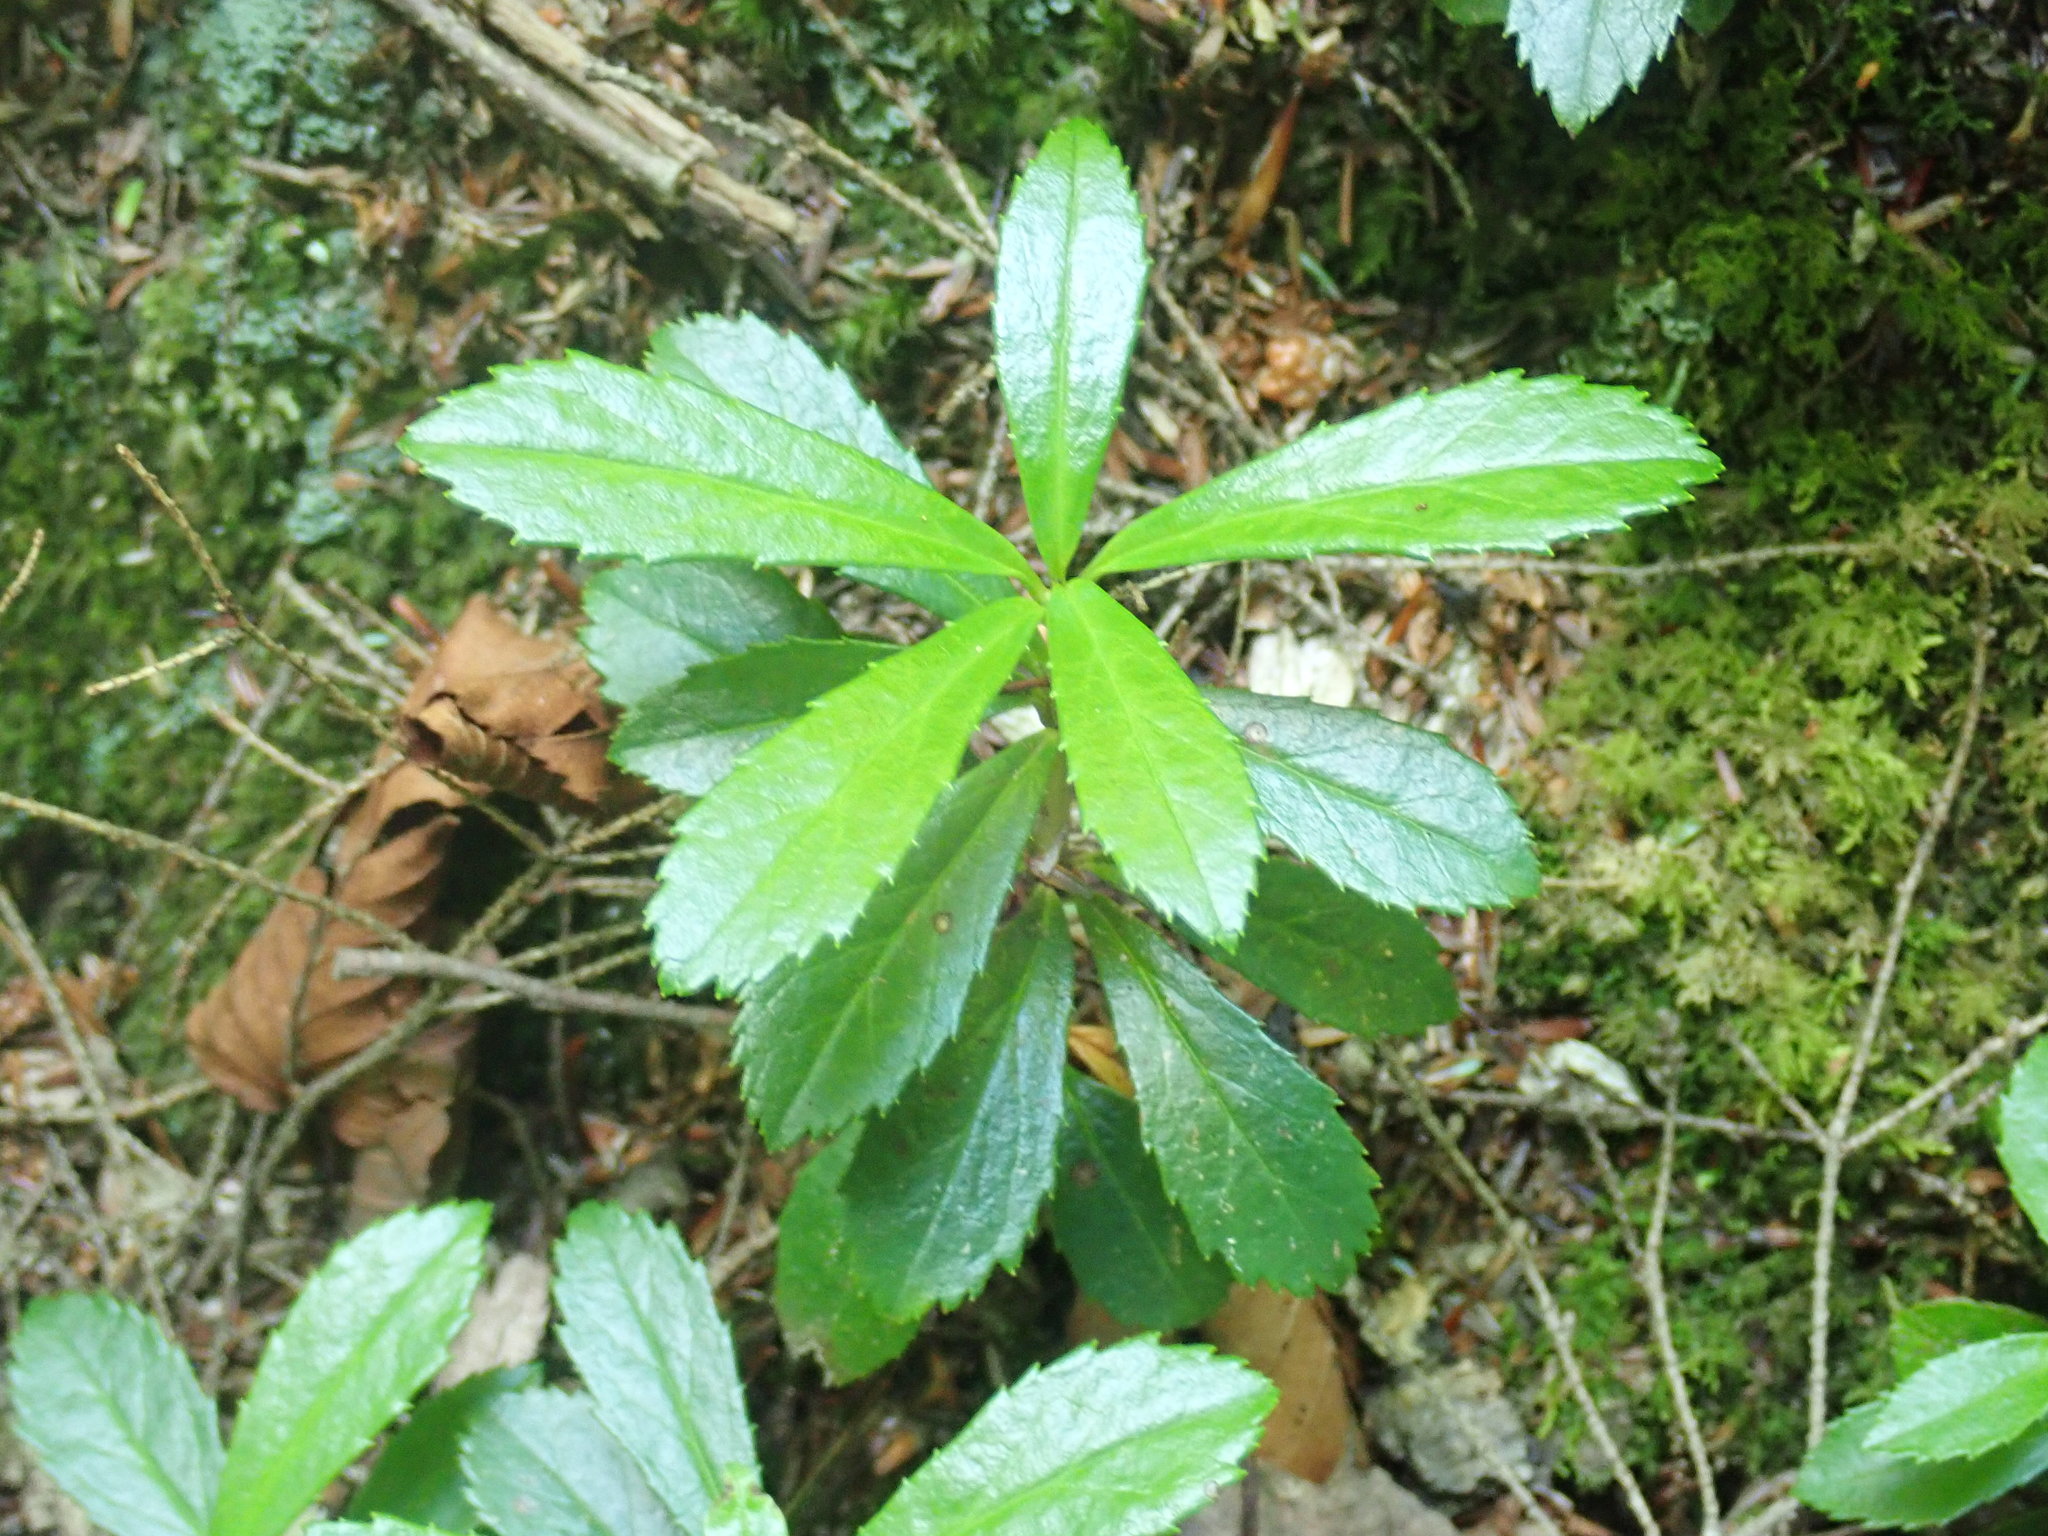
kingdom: Plantae
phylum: Tracheophyta
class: Magnoliopsida
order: Ericales
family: Ericaceae
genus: Chimaphila
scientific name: Chimaphila umbellata
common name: Pipsissewa
